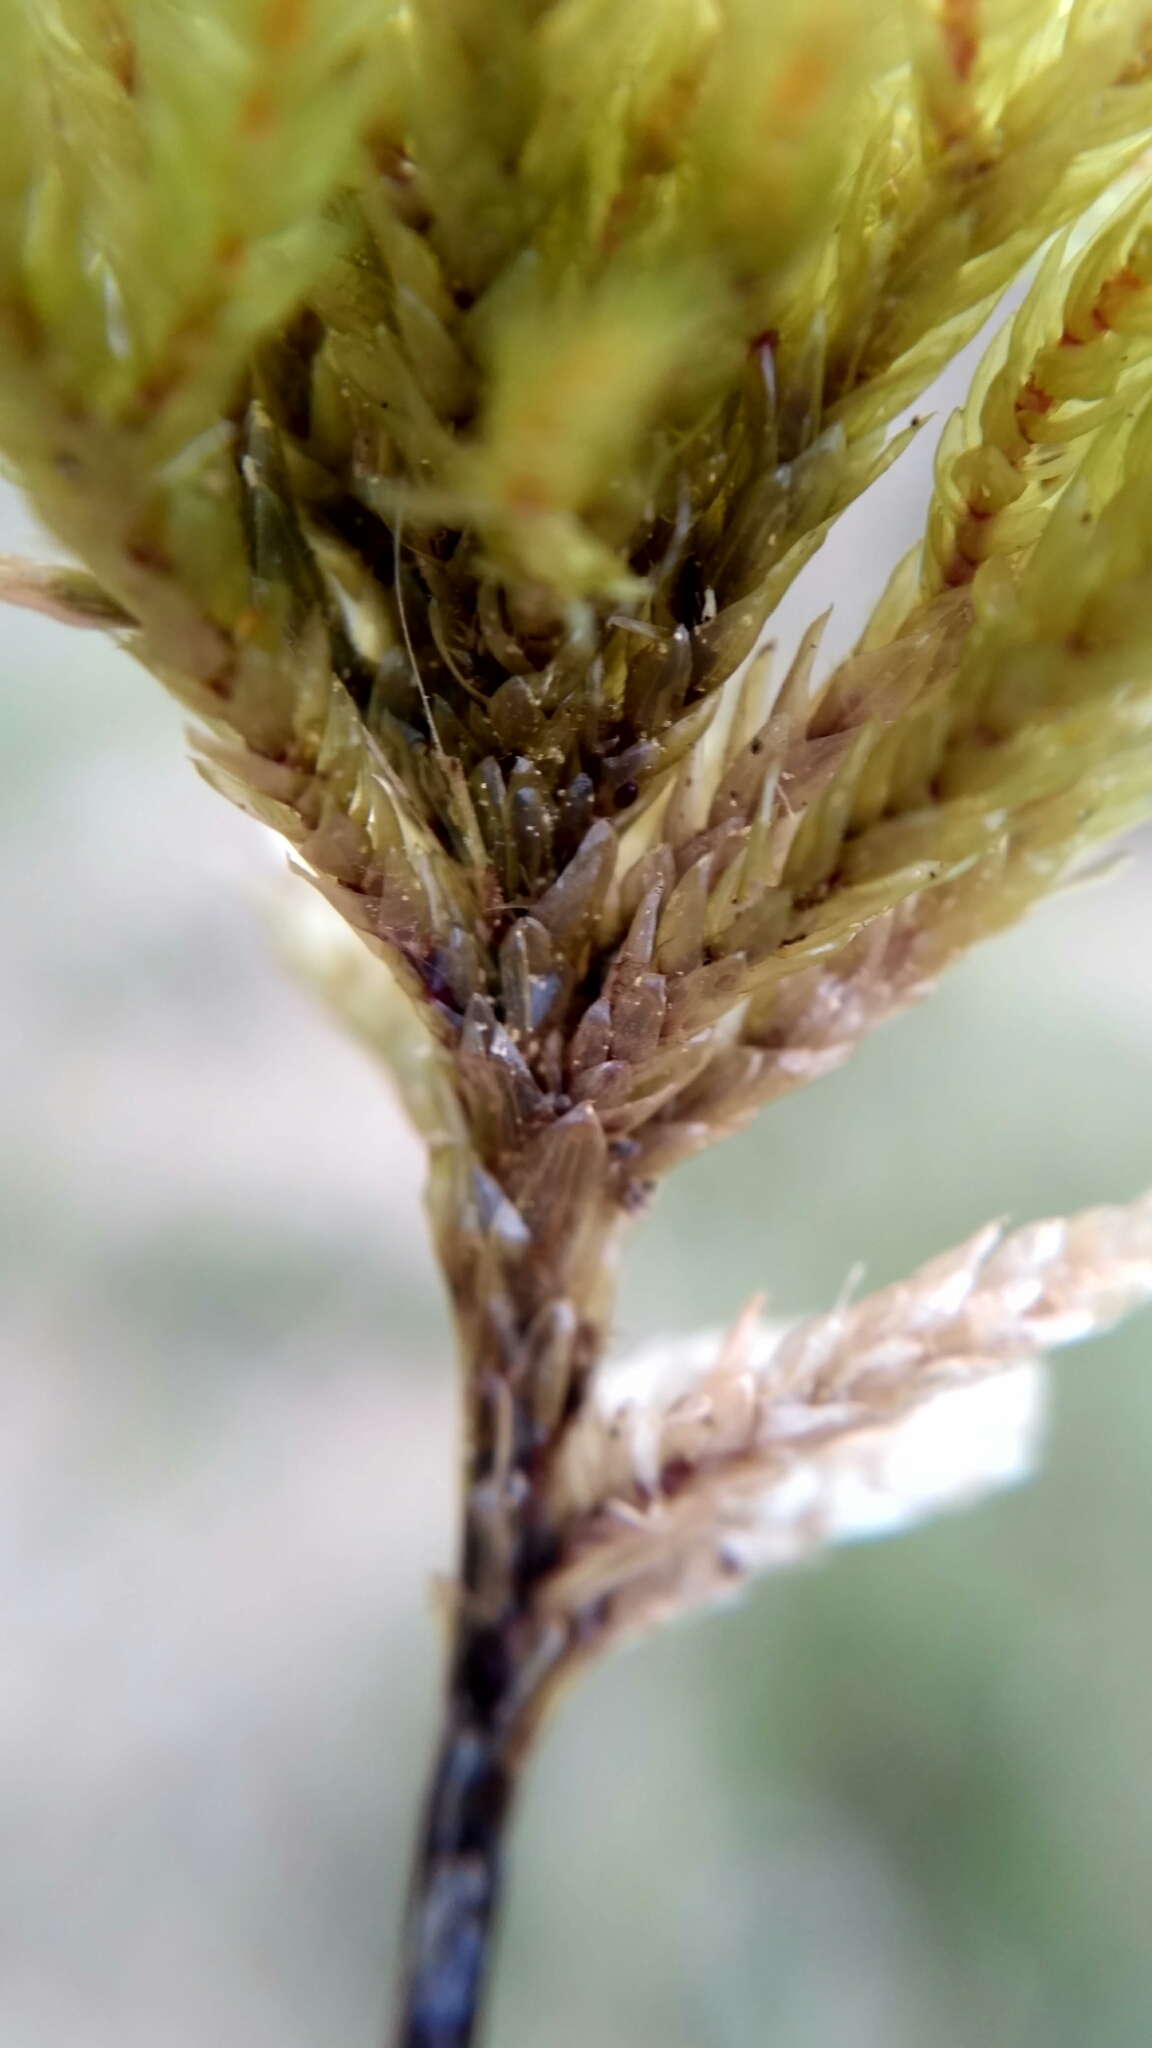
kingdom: Plantae
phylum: Bryophyta
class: Bryopsida
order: Hypnales
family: Climaciaceae
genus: Climacium
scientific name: Climacium dendroides
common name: Northern tree moss
